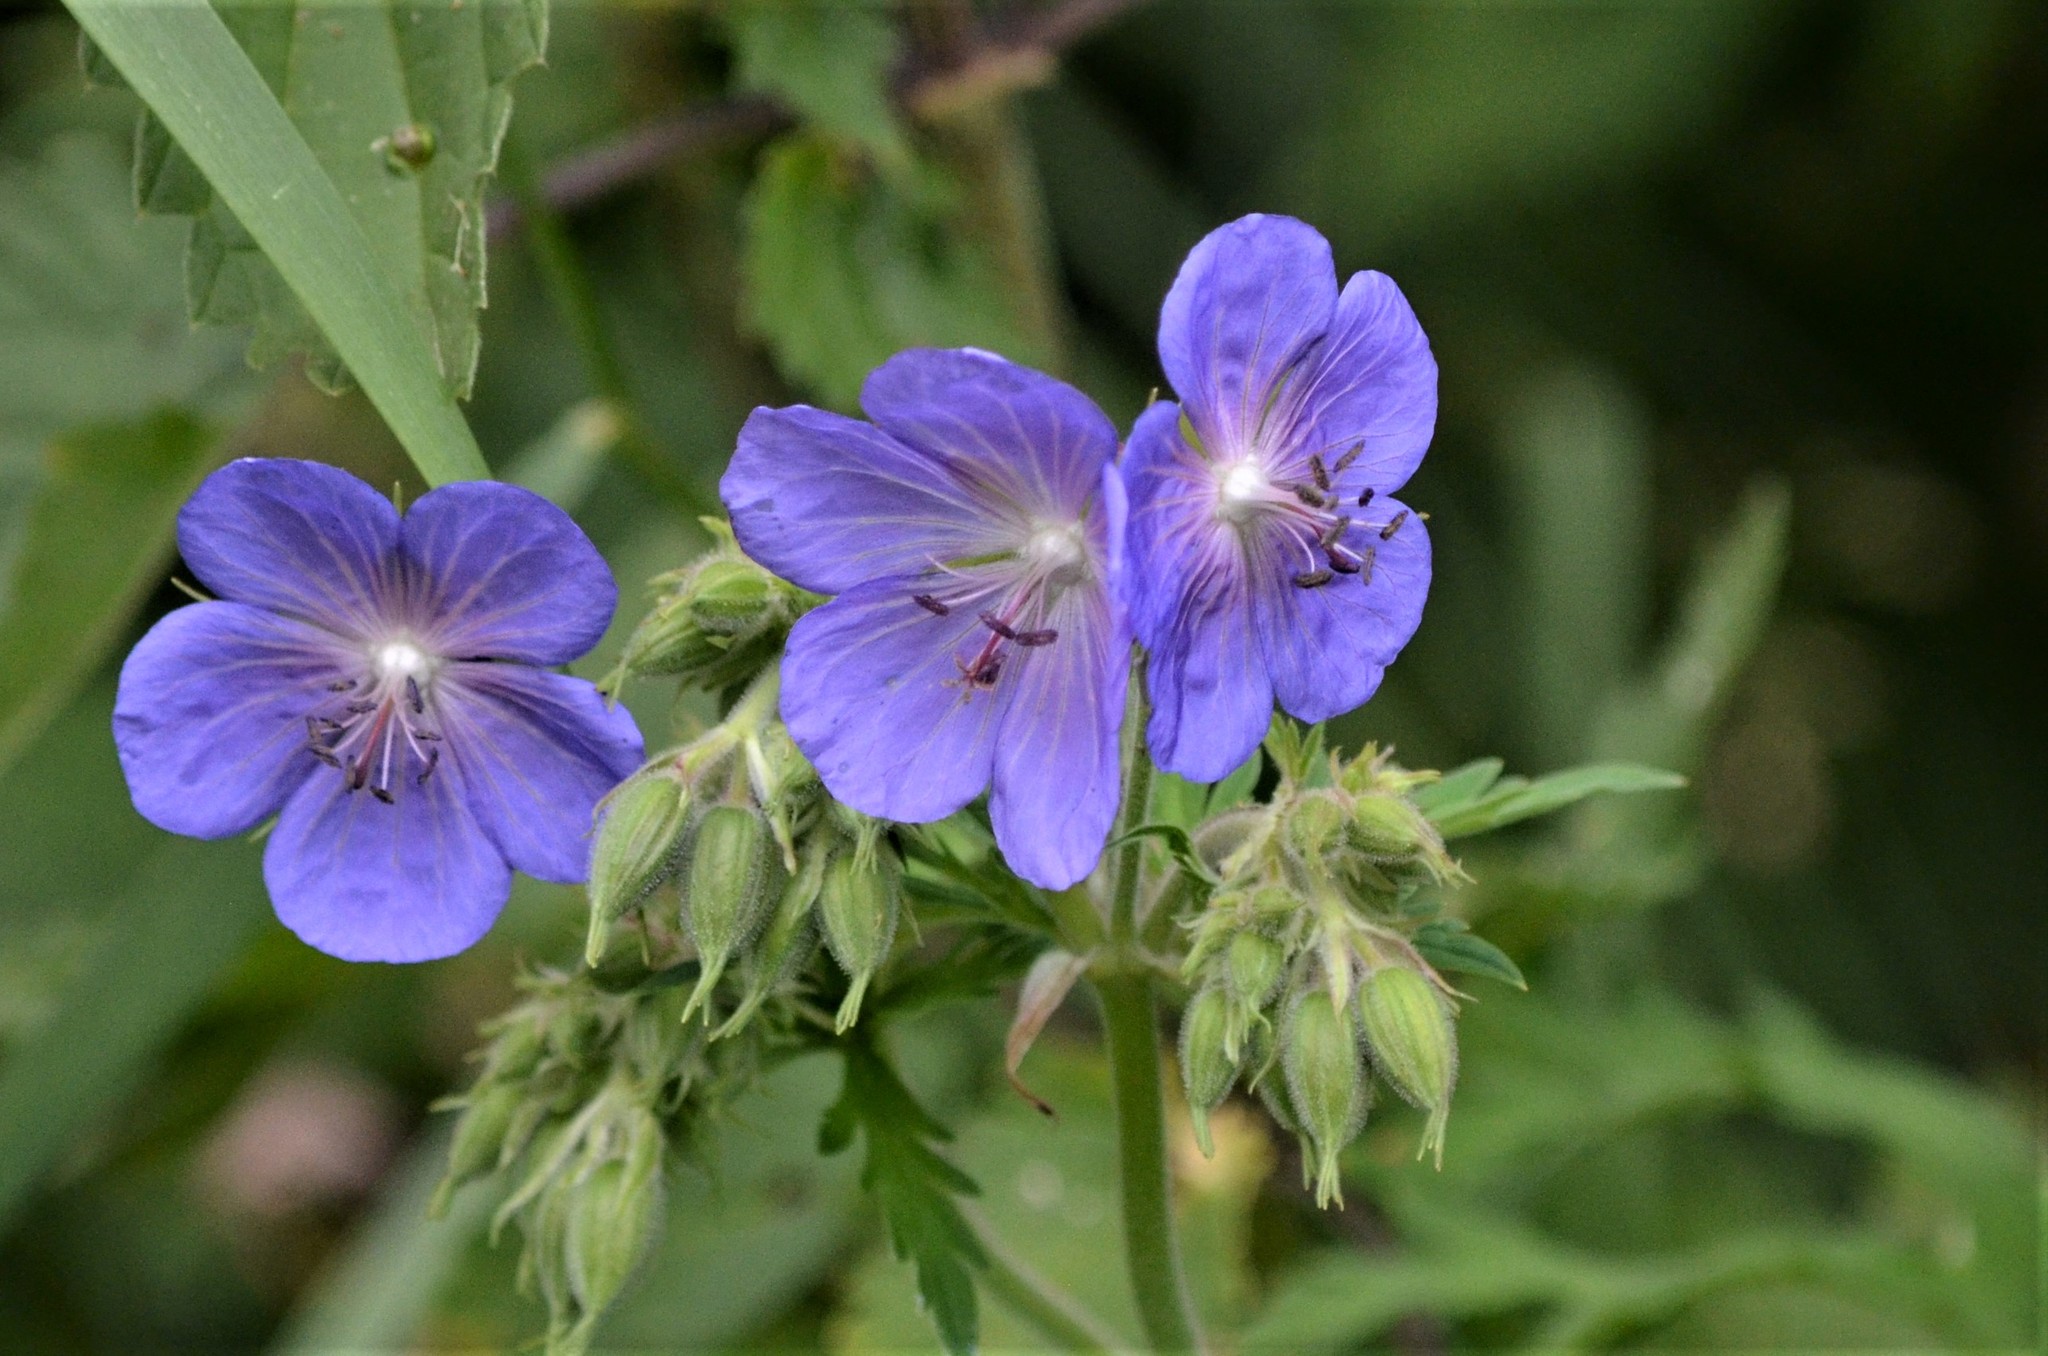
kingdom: Plantae
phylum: Tracheophyta
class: Magnoliopsida
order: Geraniales
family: Geraniaceae
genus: Geranium
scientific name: Geranium pratense
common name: Meadow crane's-bill
